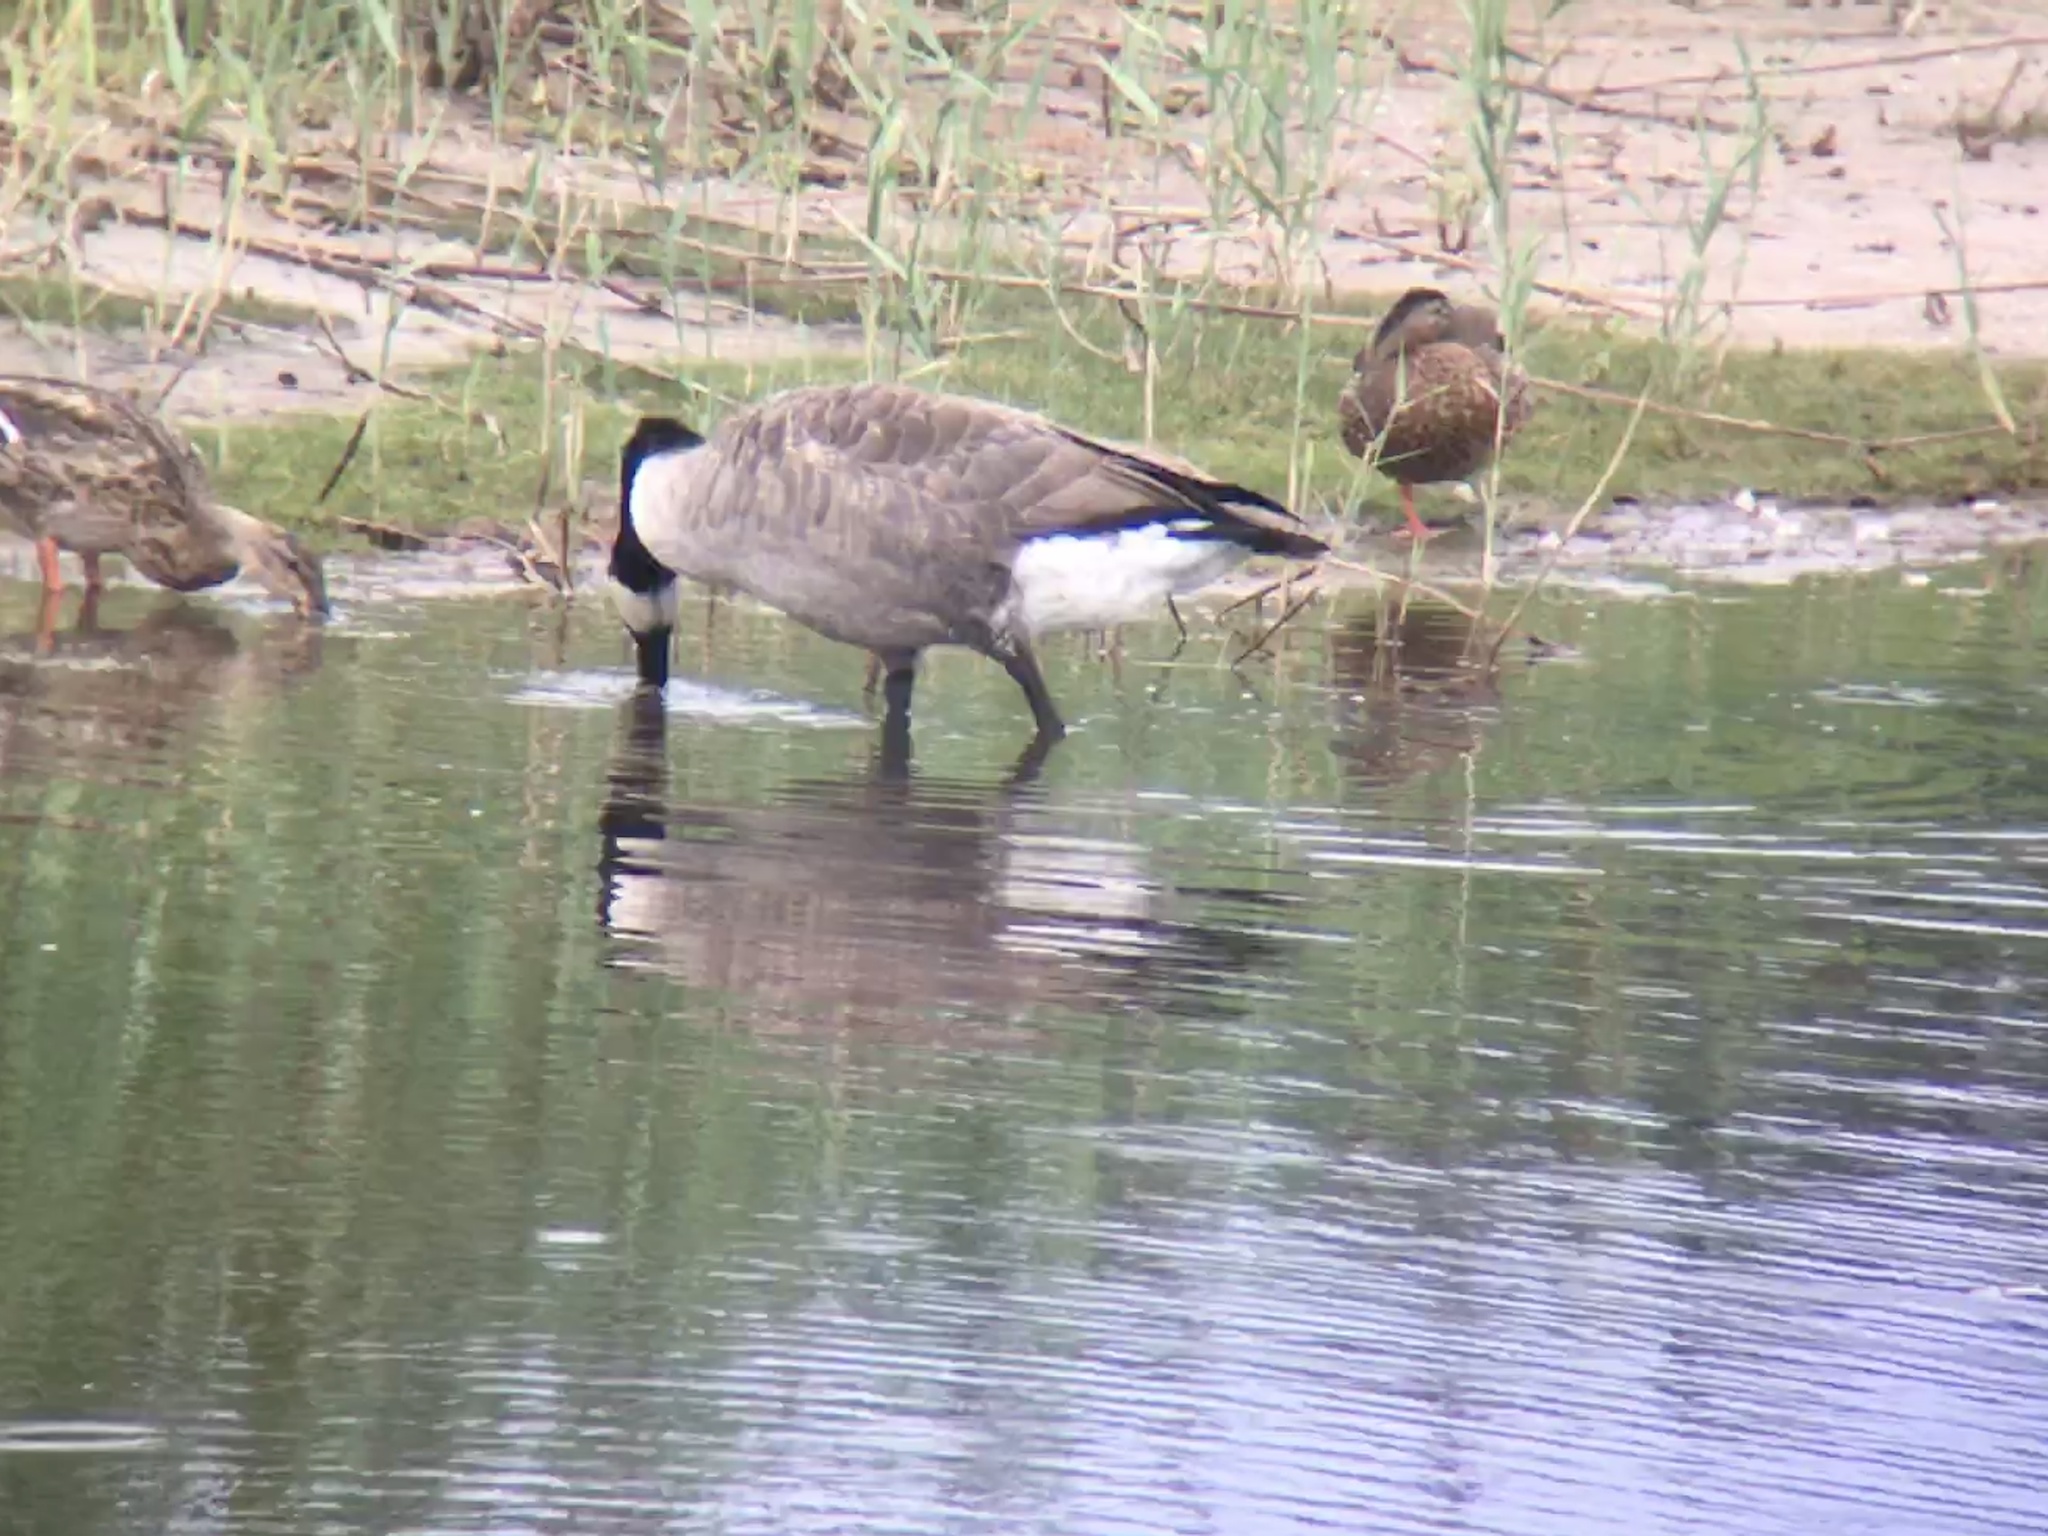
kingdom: Animalia
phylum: Chordata
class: Aves
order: Anseriformes
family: Anatidae
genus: Branta
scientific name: Branta canadensis
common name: Canada goose
